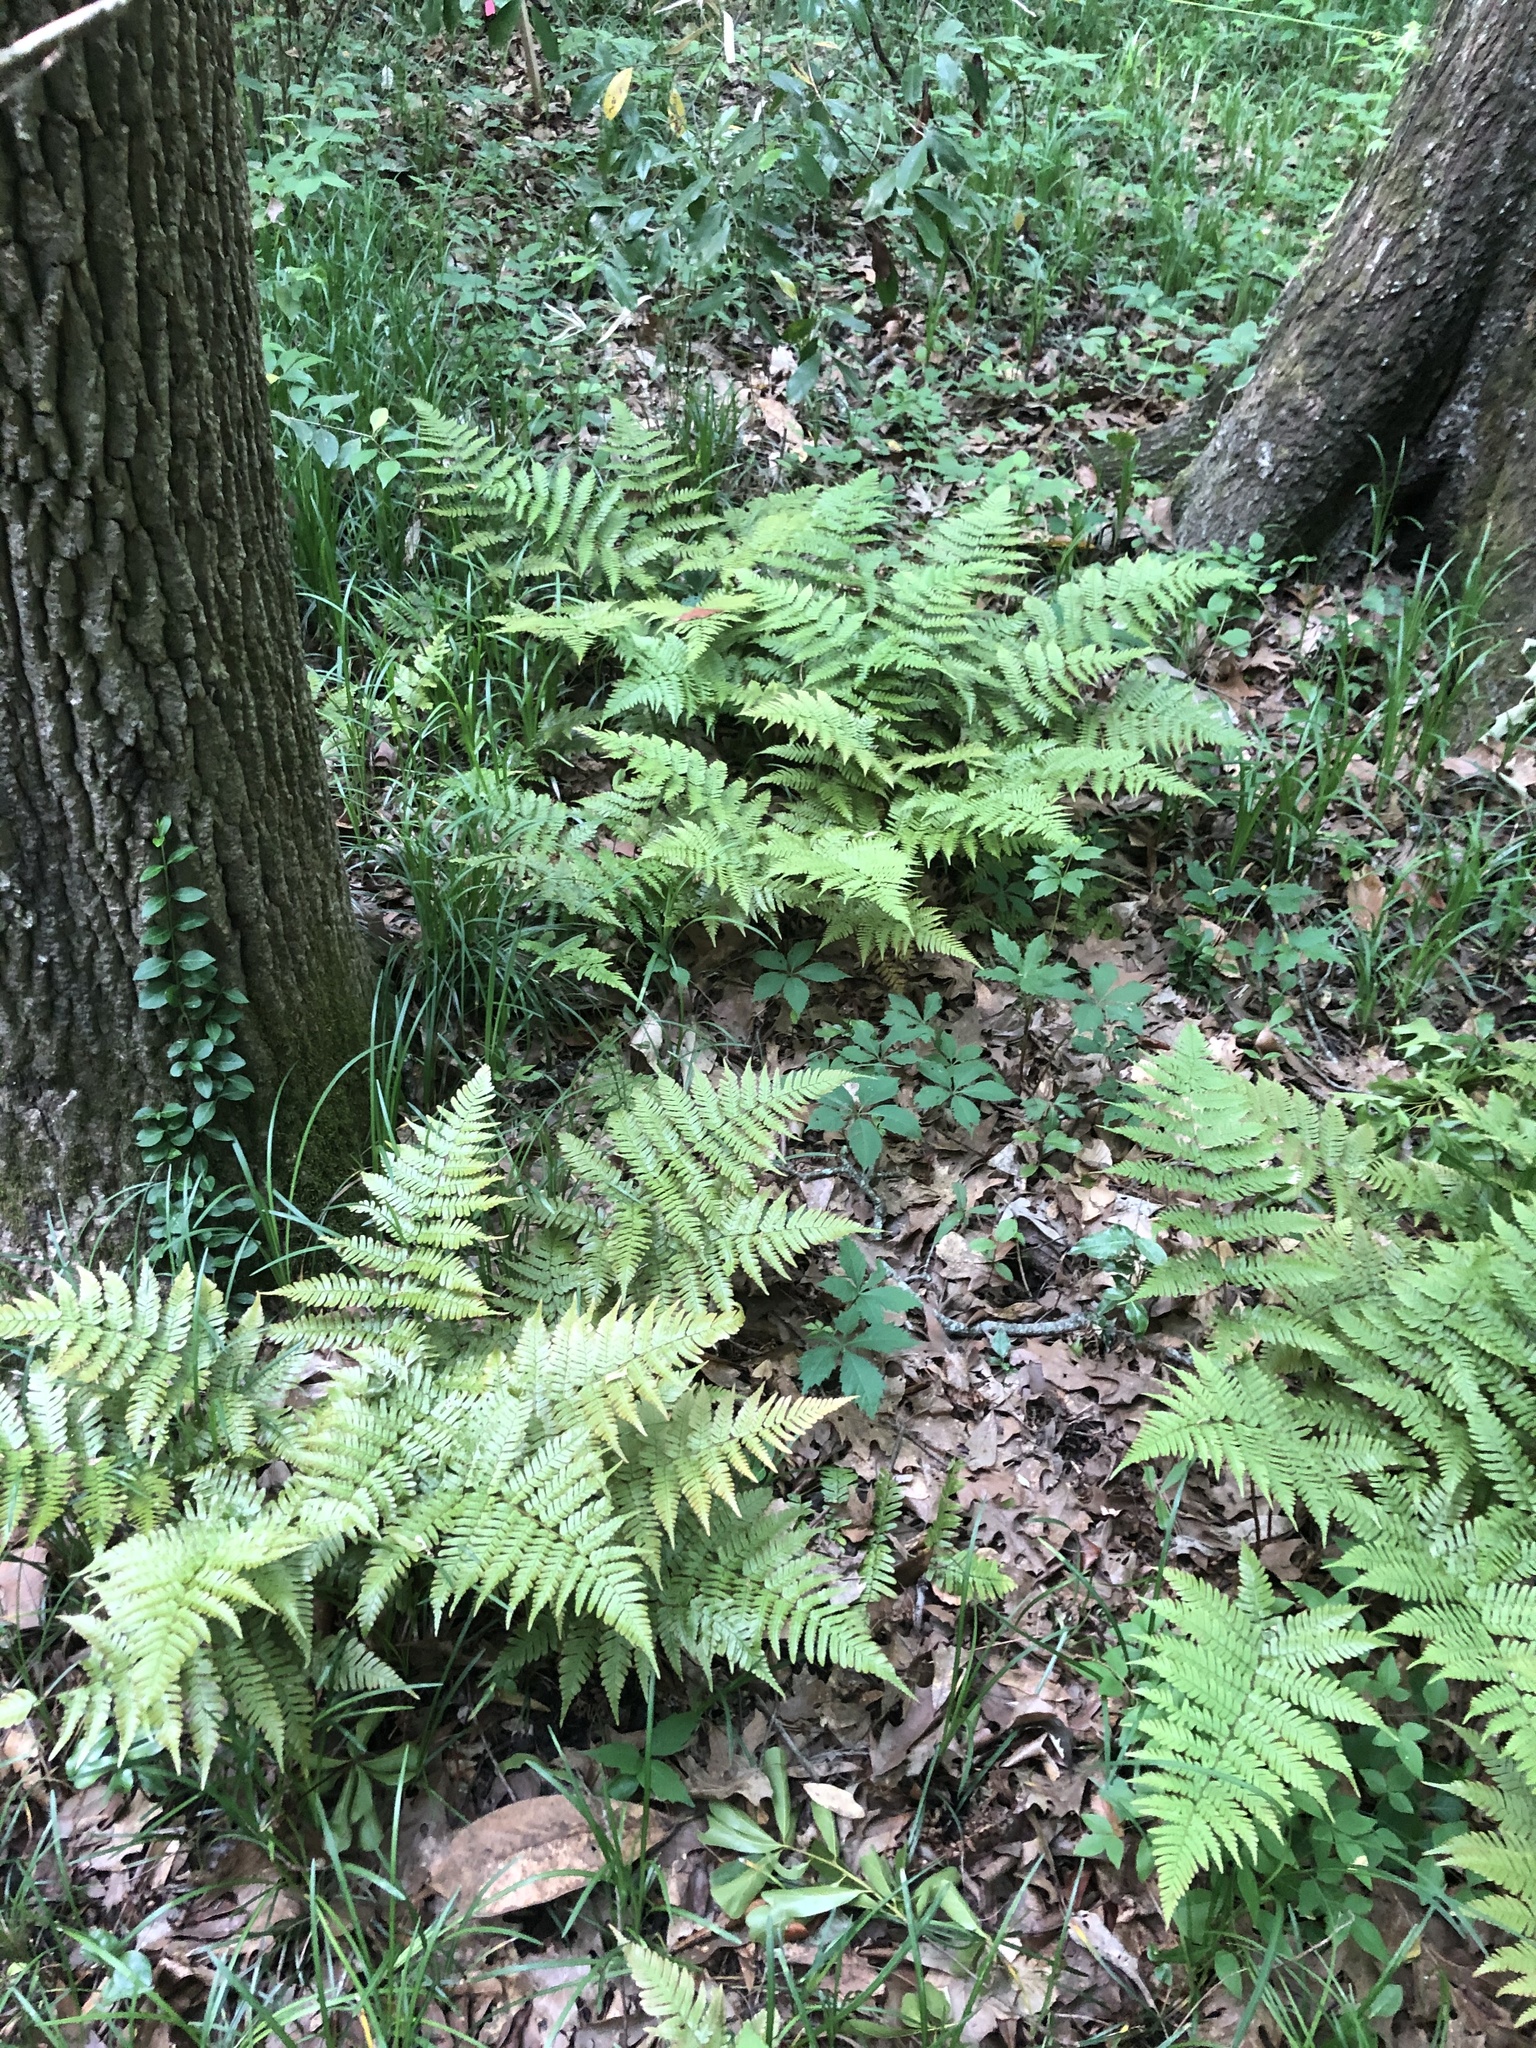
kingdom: Plantae
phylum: Tracheophyta
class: Polypodiopsida
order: Polypodiales
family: Dryopteridaceae
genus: Dryopteris
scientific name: Dryopteris erythrosora
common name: Autumn fern
